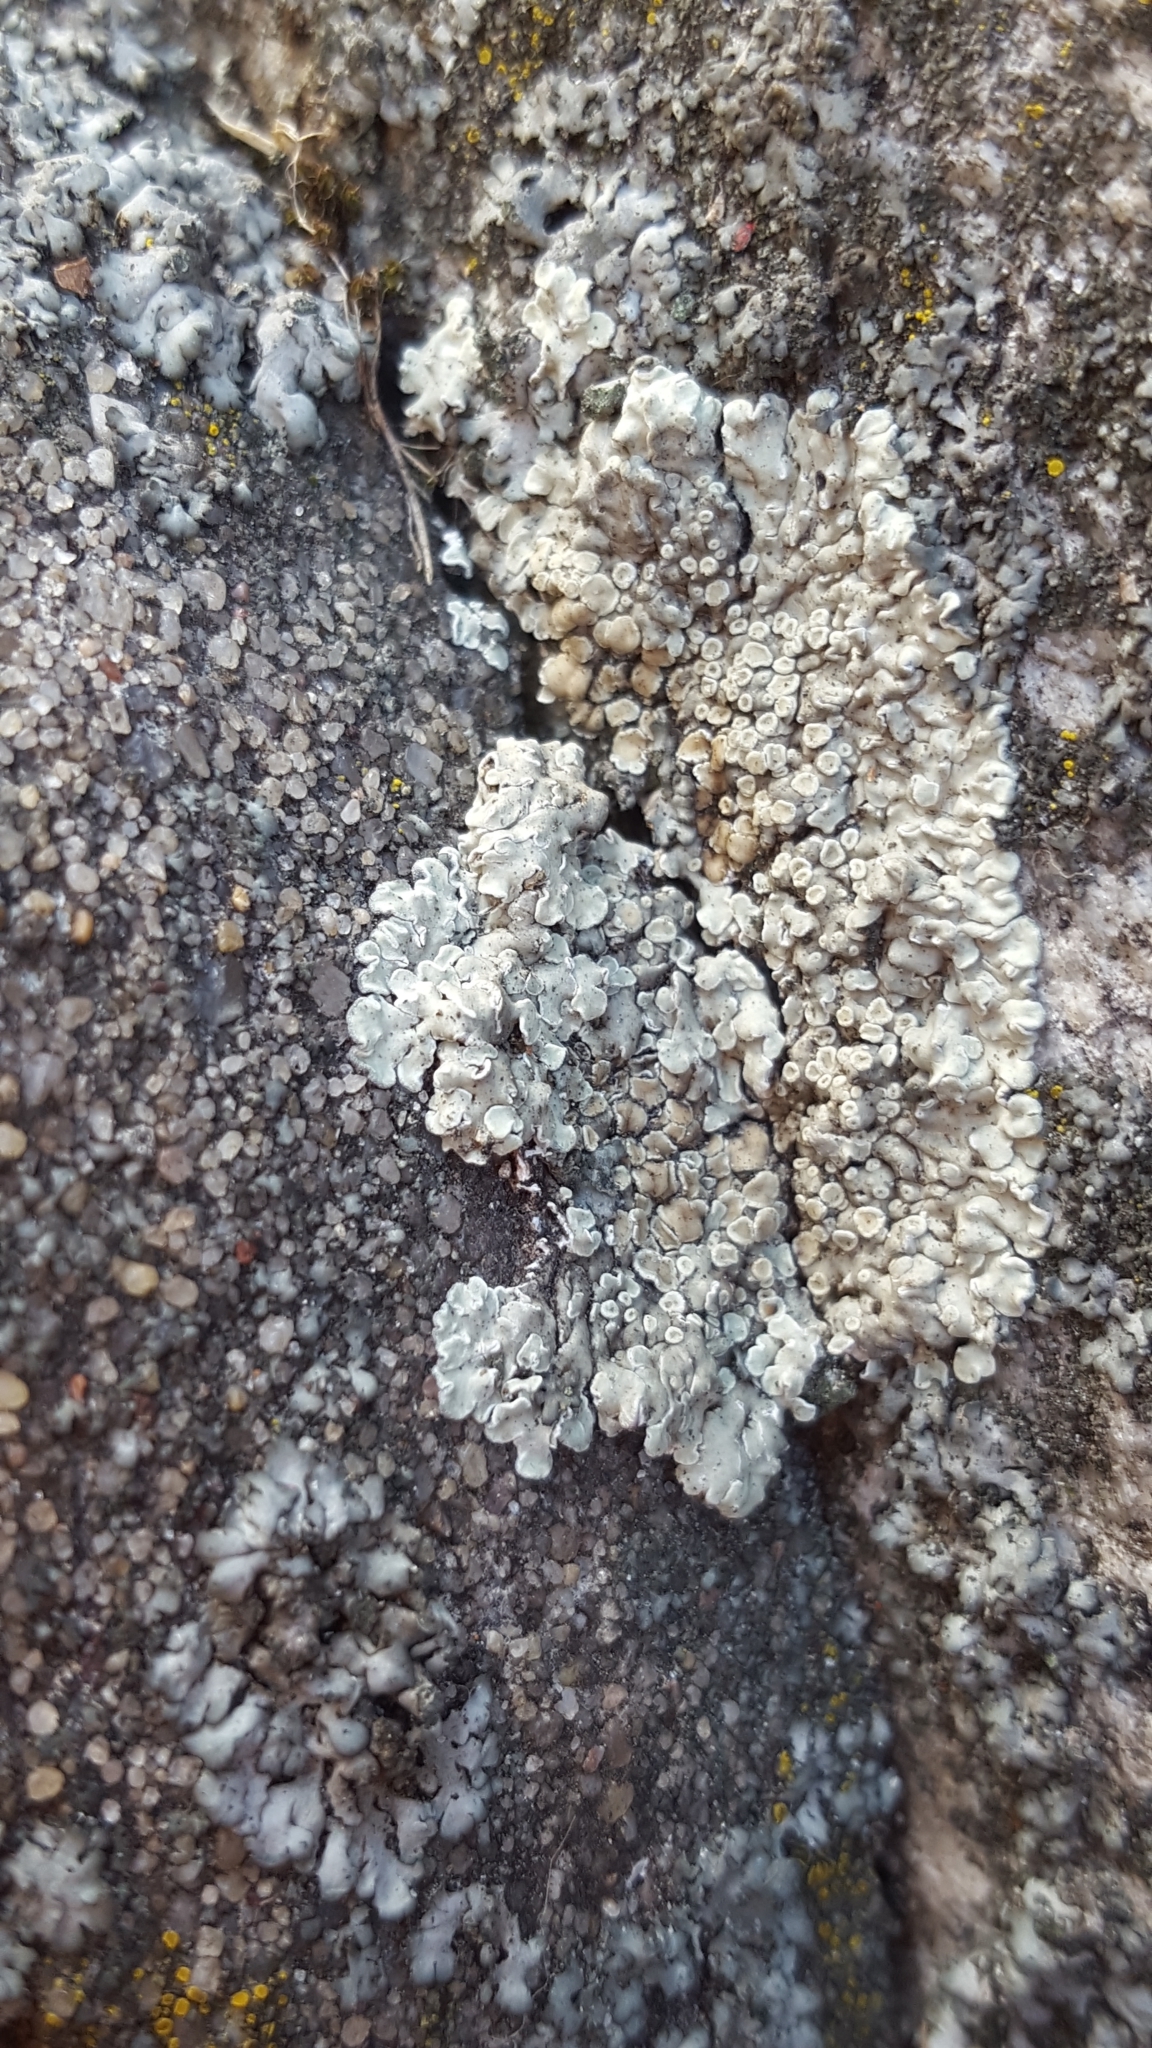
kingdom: Fungi
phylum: Ascomycota
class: Lecanoromycetes
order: Lecanorales
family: Lecanoraceae
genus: Protoparmeliopsis
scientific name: Protoparmeliopsis muralis
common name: Stonewall rim lichen
